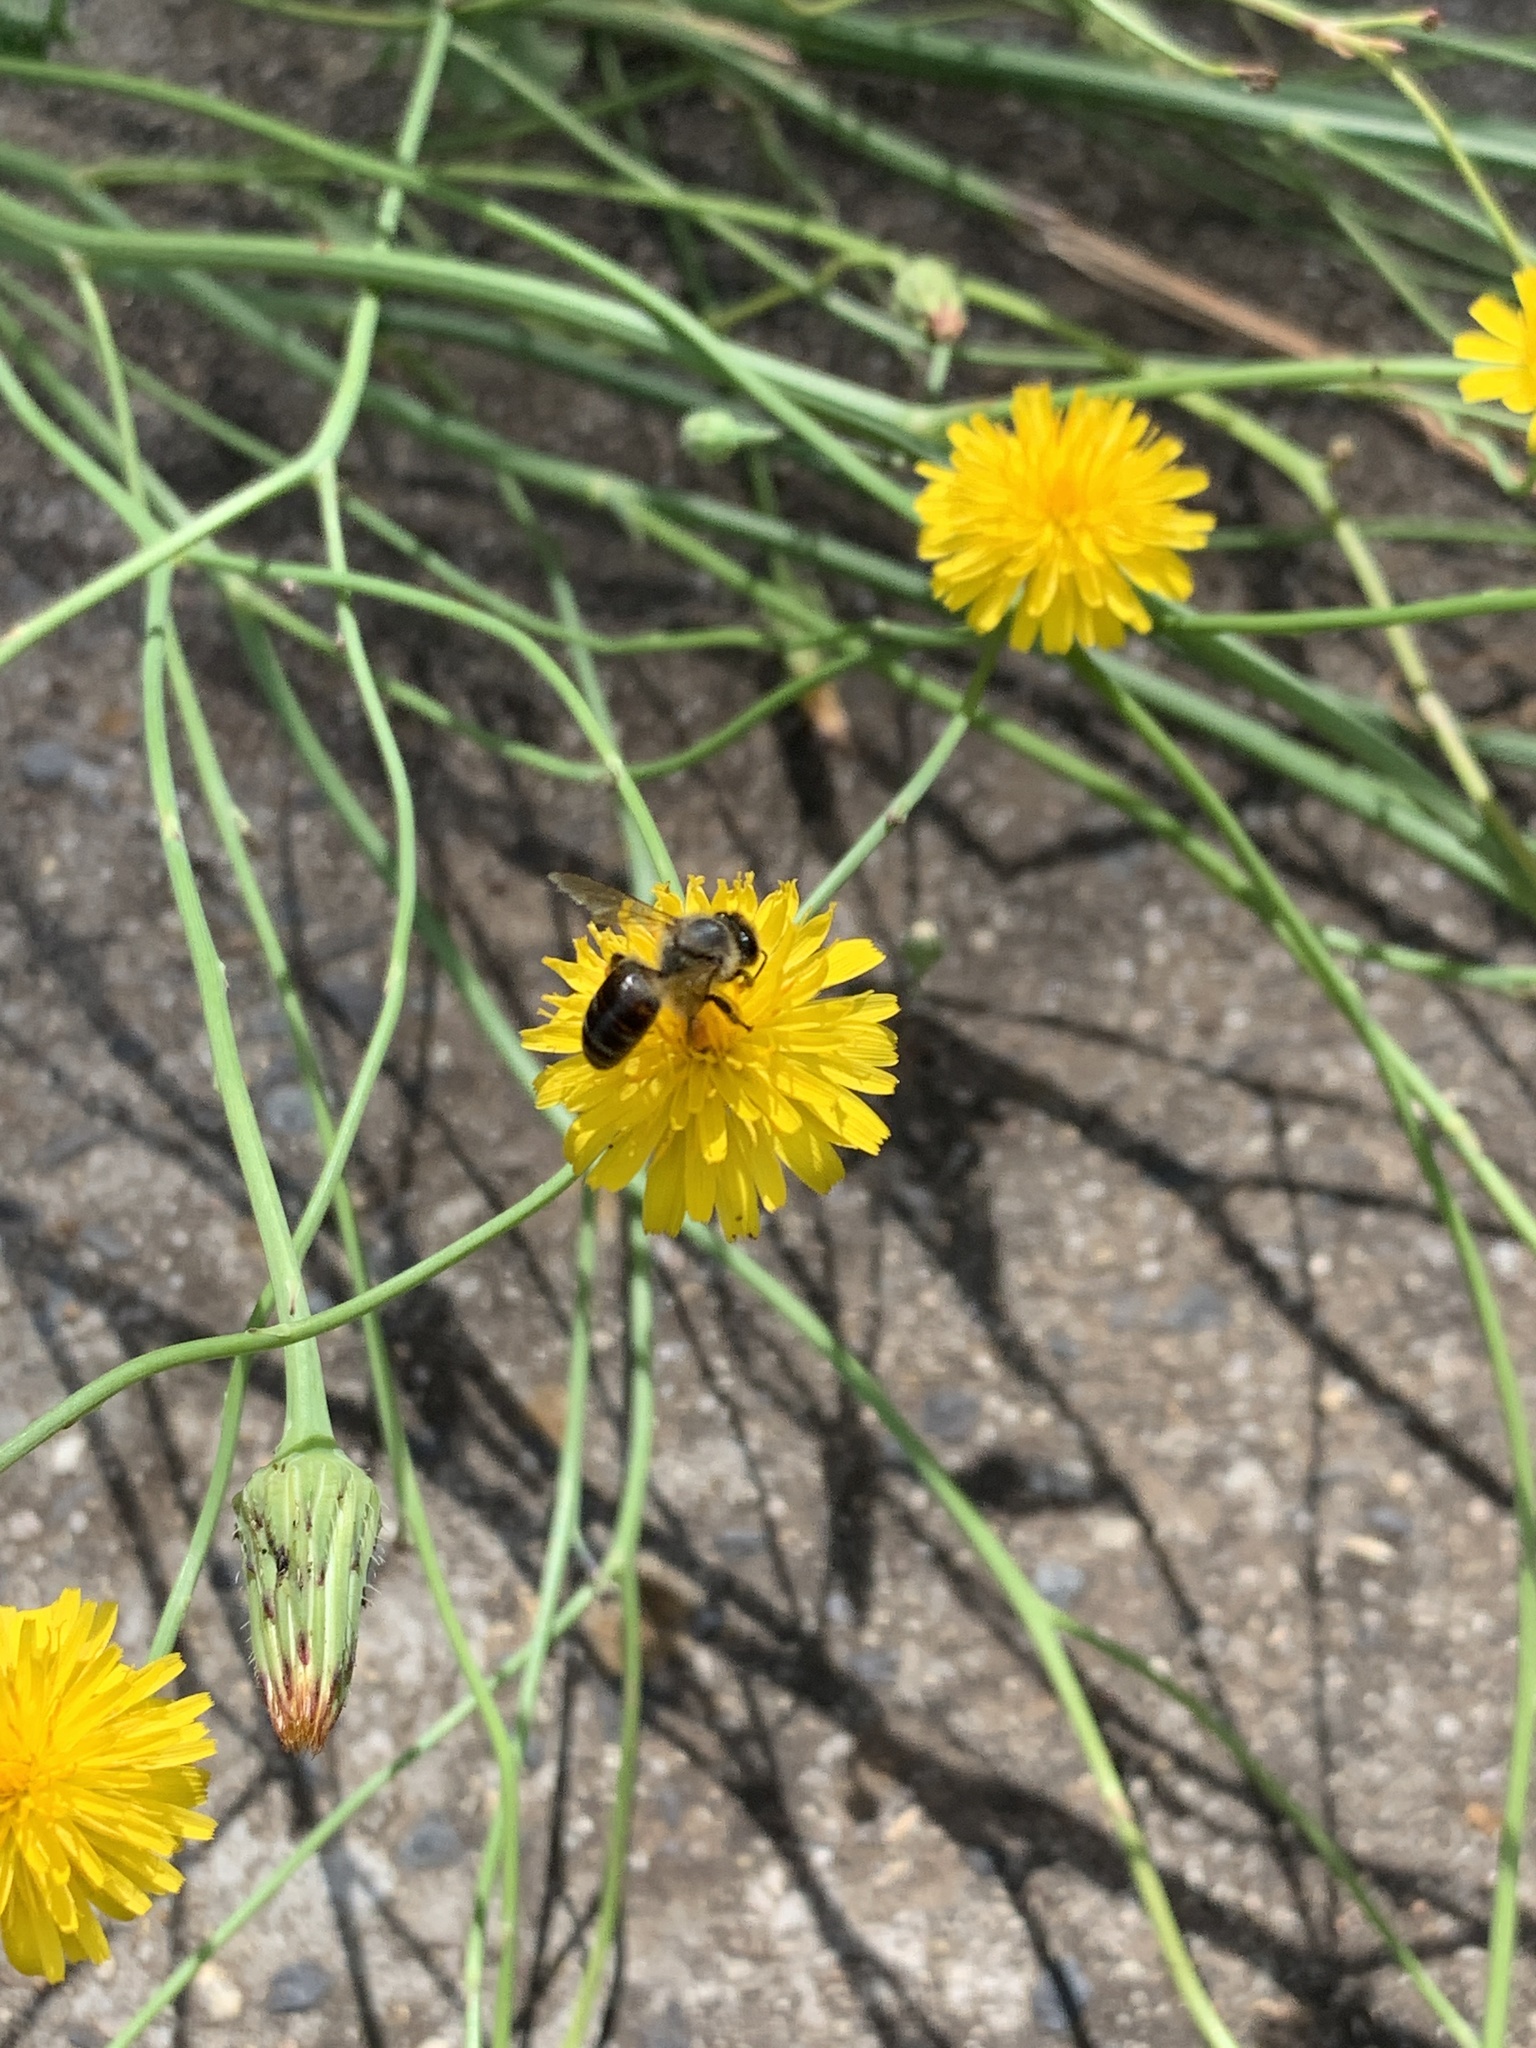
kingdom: Animalia
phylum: Arthropoda
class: Insecta
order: Hymenoptera
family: Apidae
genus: Apis
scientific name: Apis mellifera
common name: Honey bee
